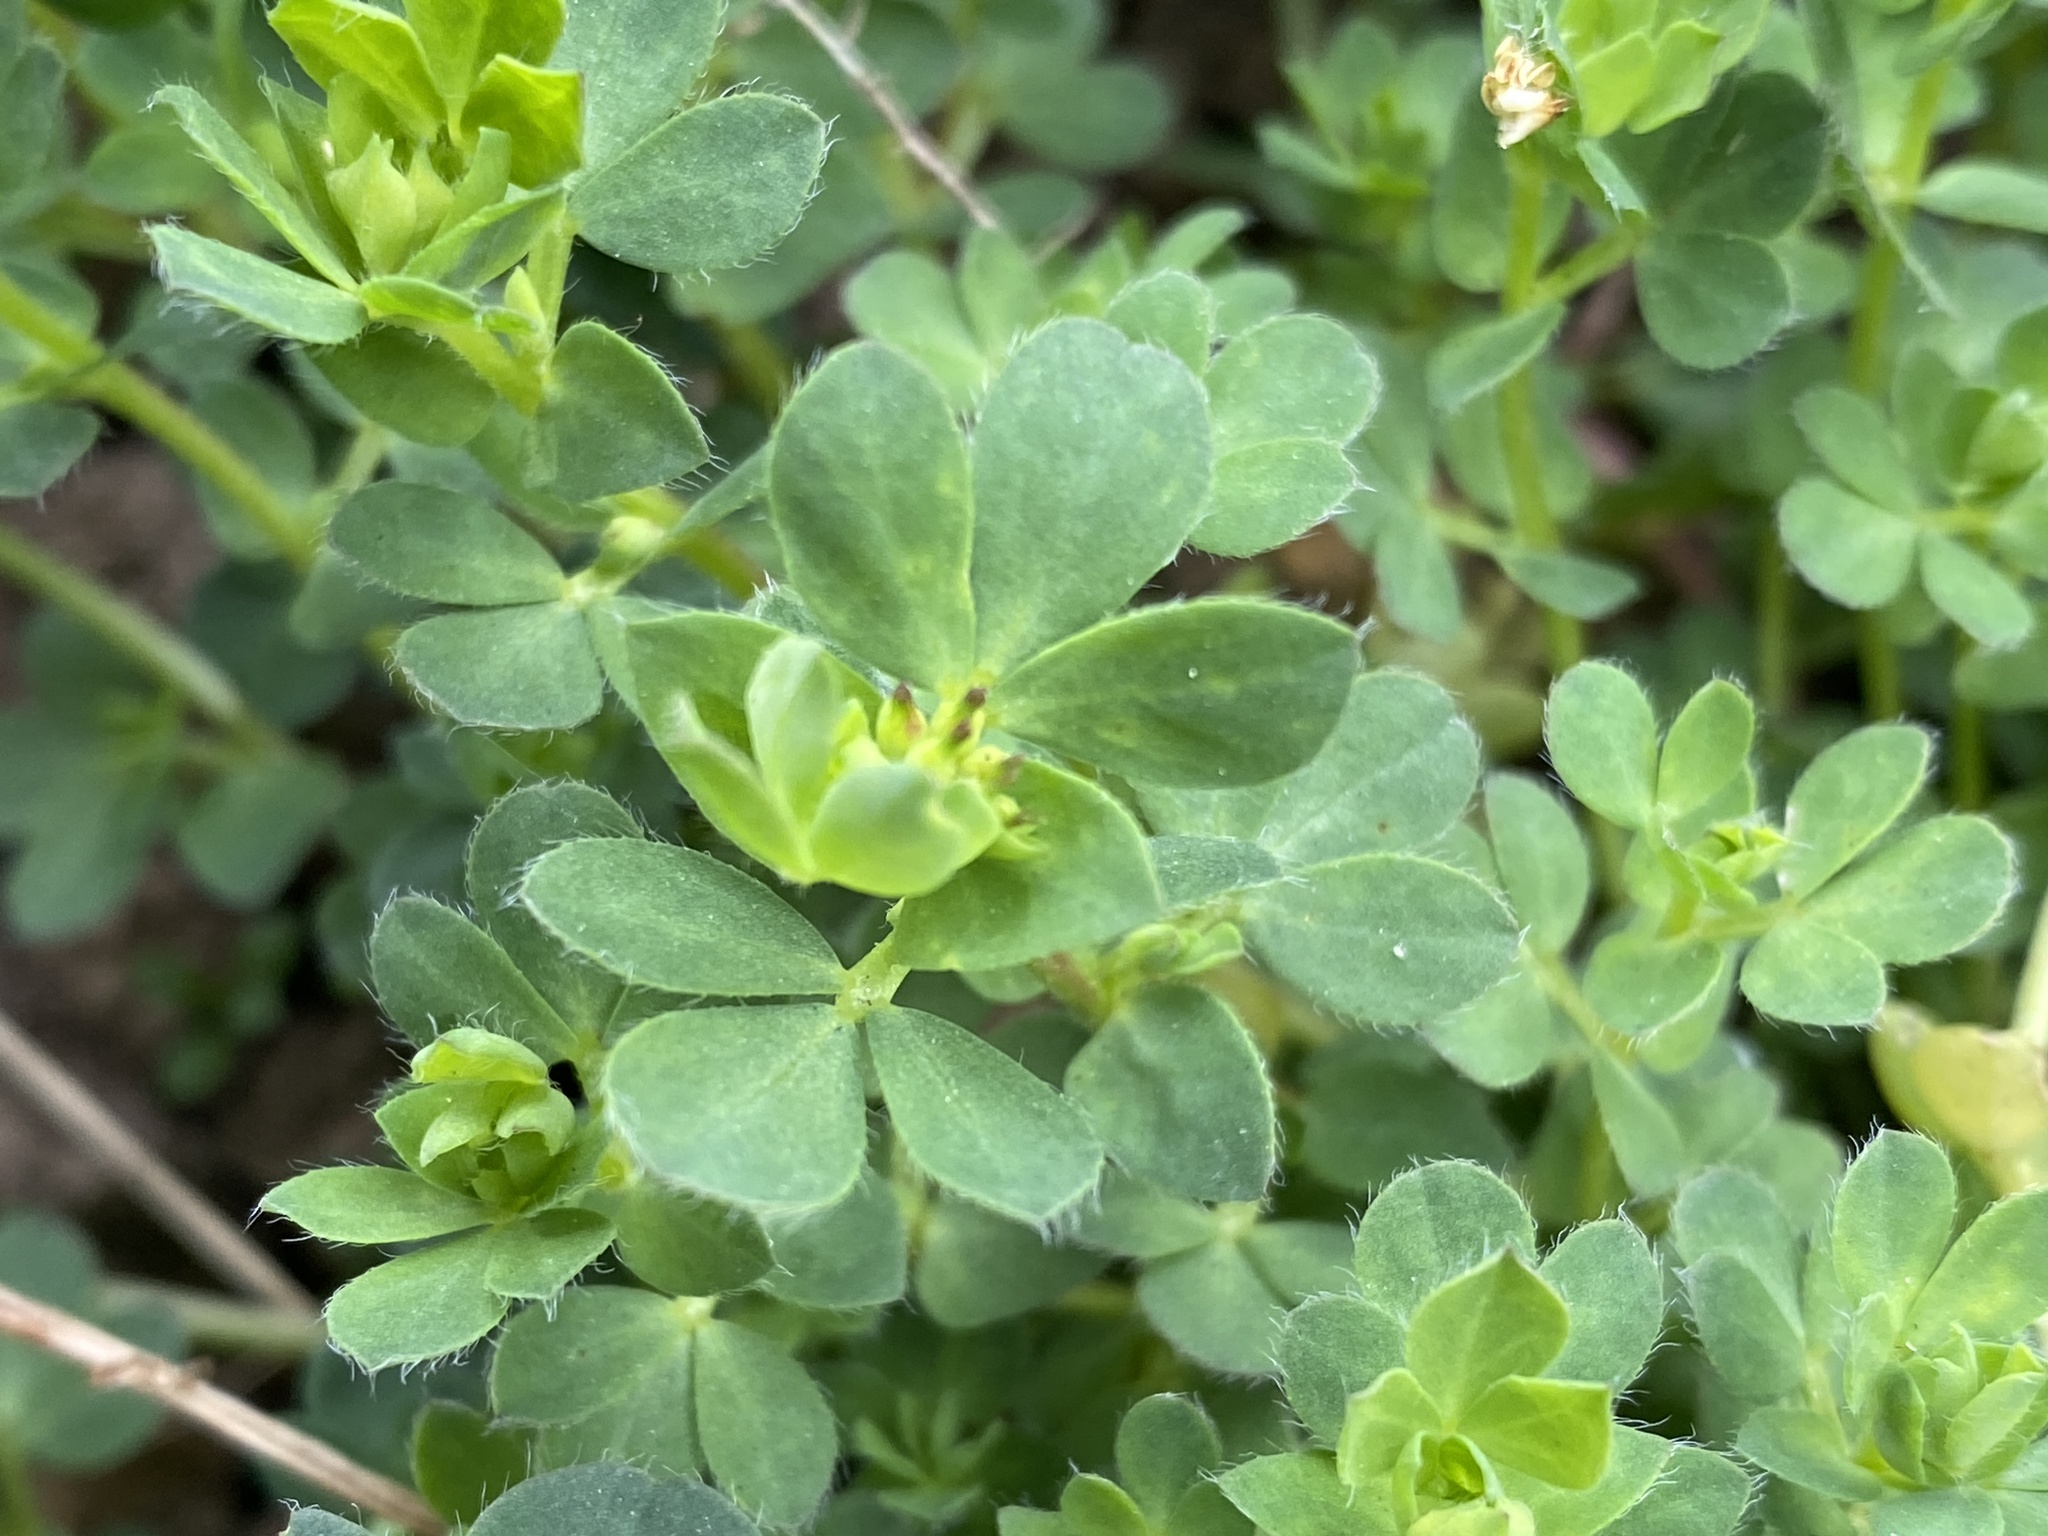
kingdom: Plantae
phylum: Tracheophyta
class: Magnoliopsida
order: Fabales
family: Fabaceae
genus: Lotus
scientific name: Lotus corniculatus
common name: Common bird's-foot-trefoil
